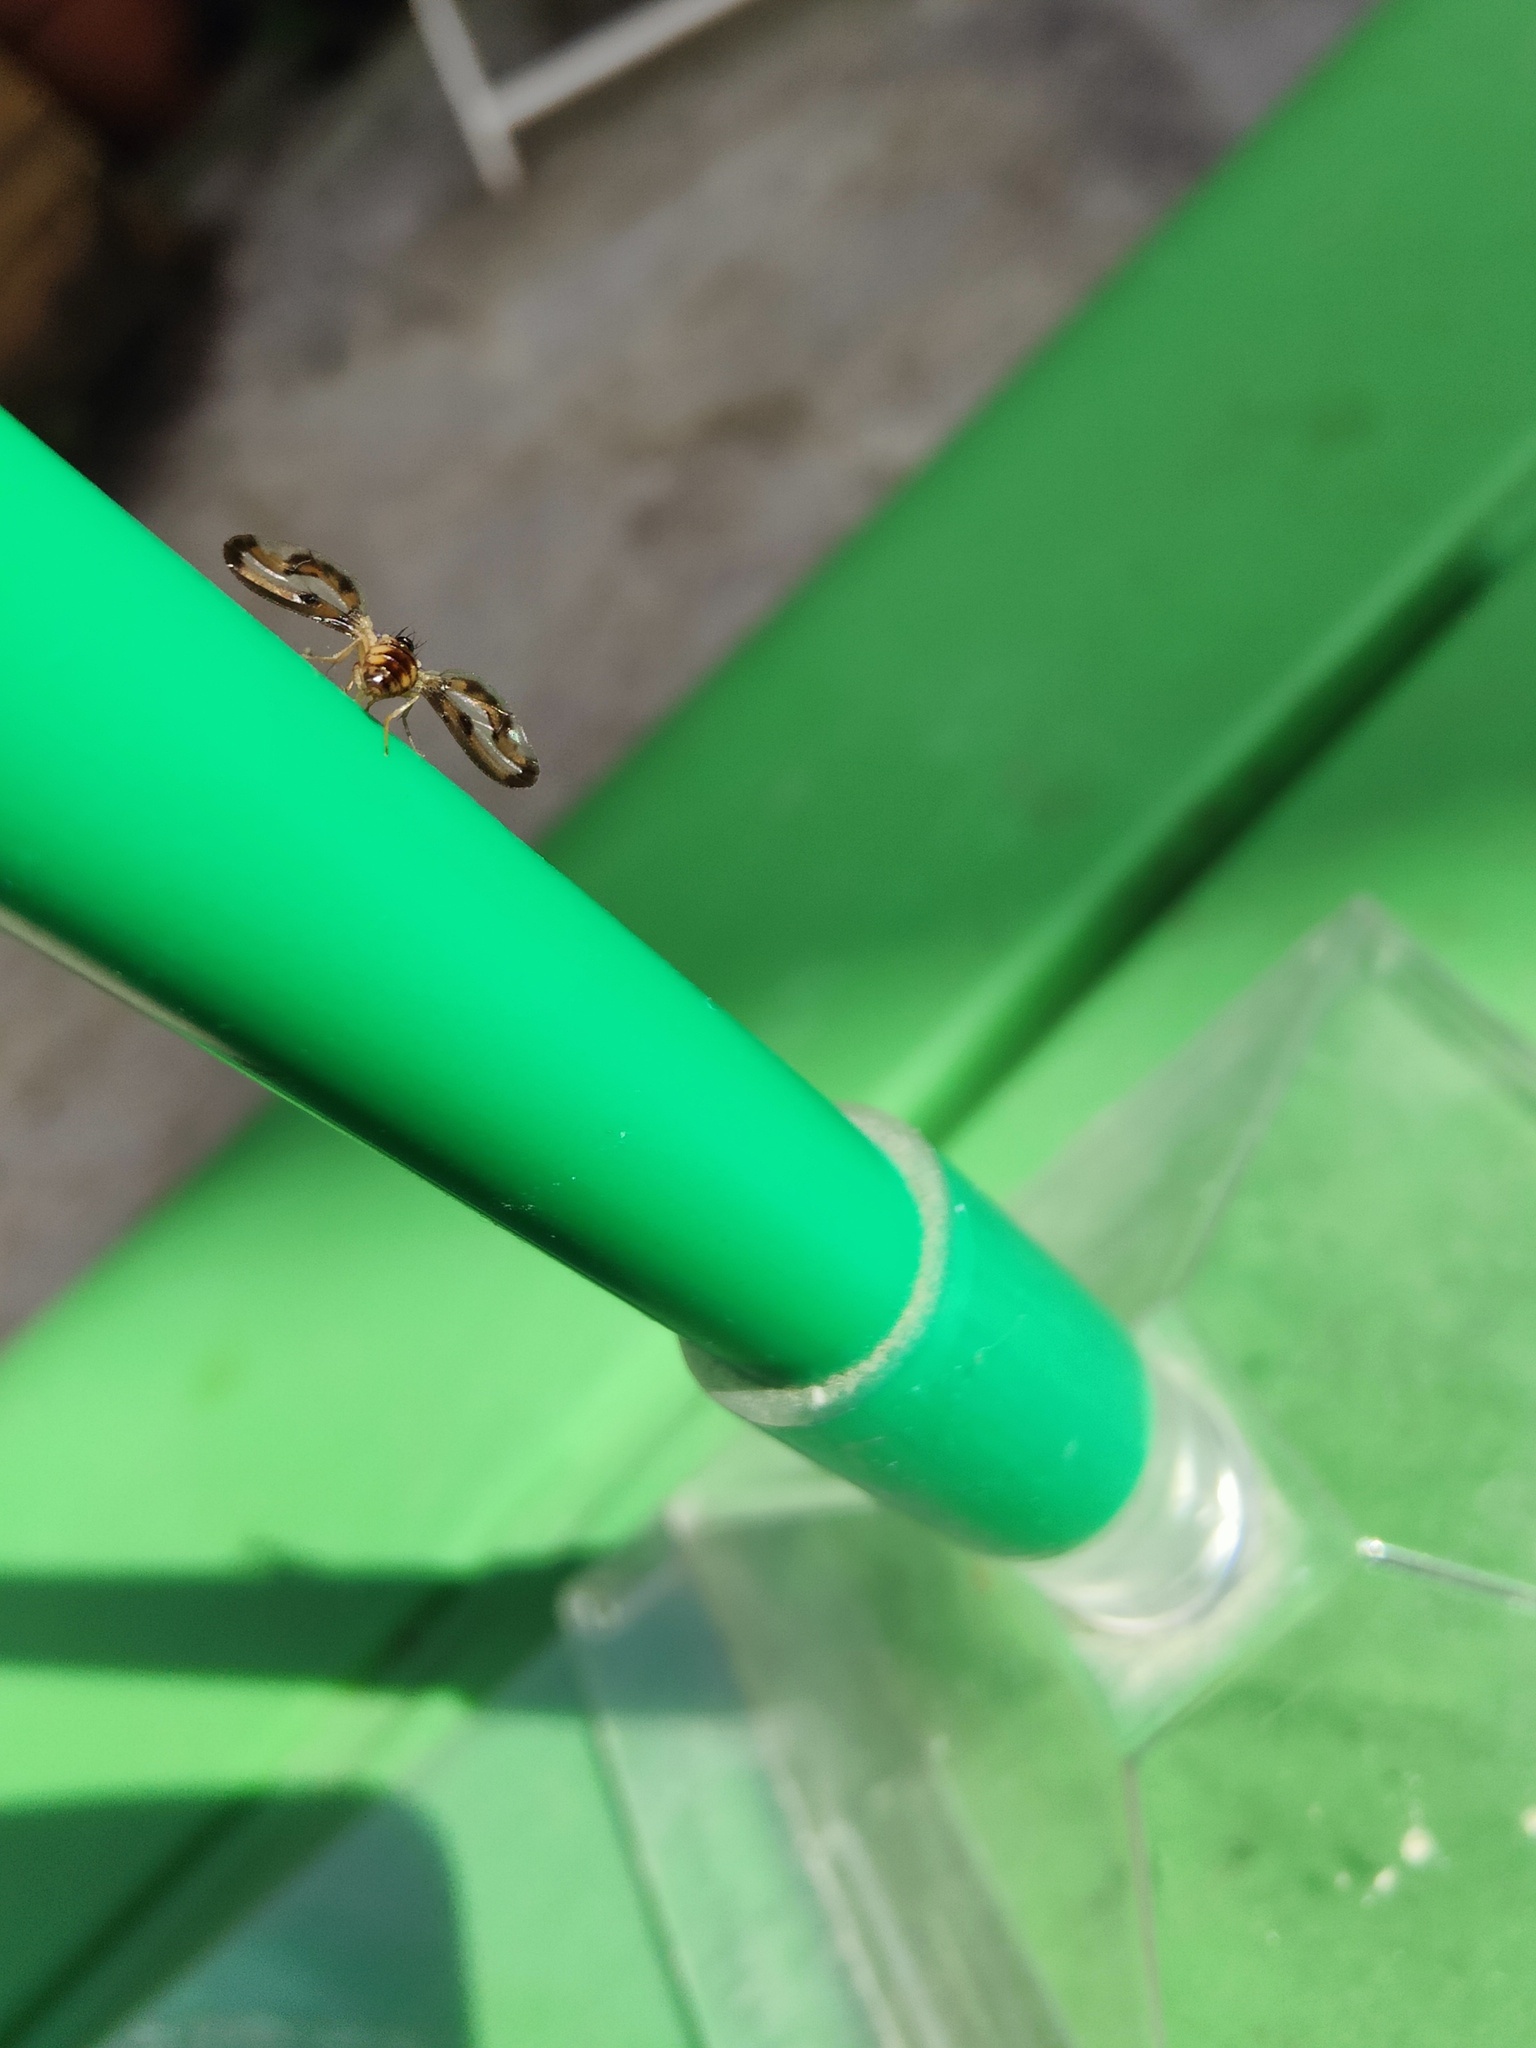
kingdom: Animalia
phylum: Arthropoda
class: Insecta
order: Diptera
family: Pallopteridae
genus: Toxonevra
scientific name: Toxonevra muliebris
